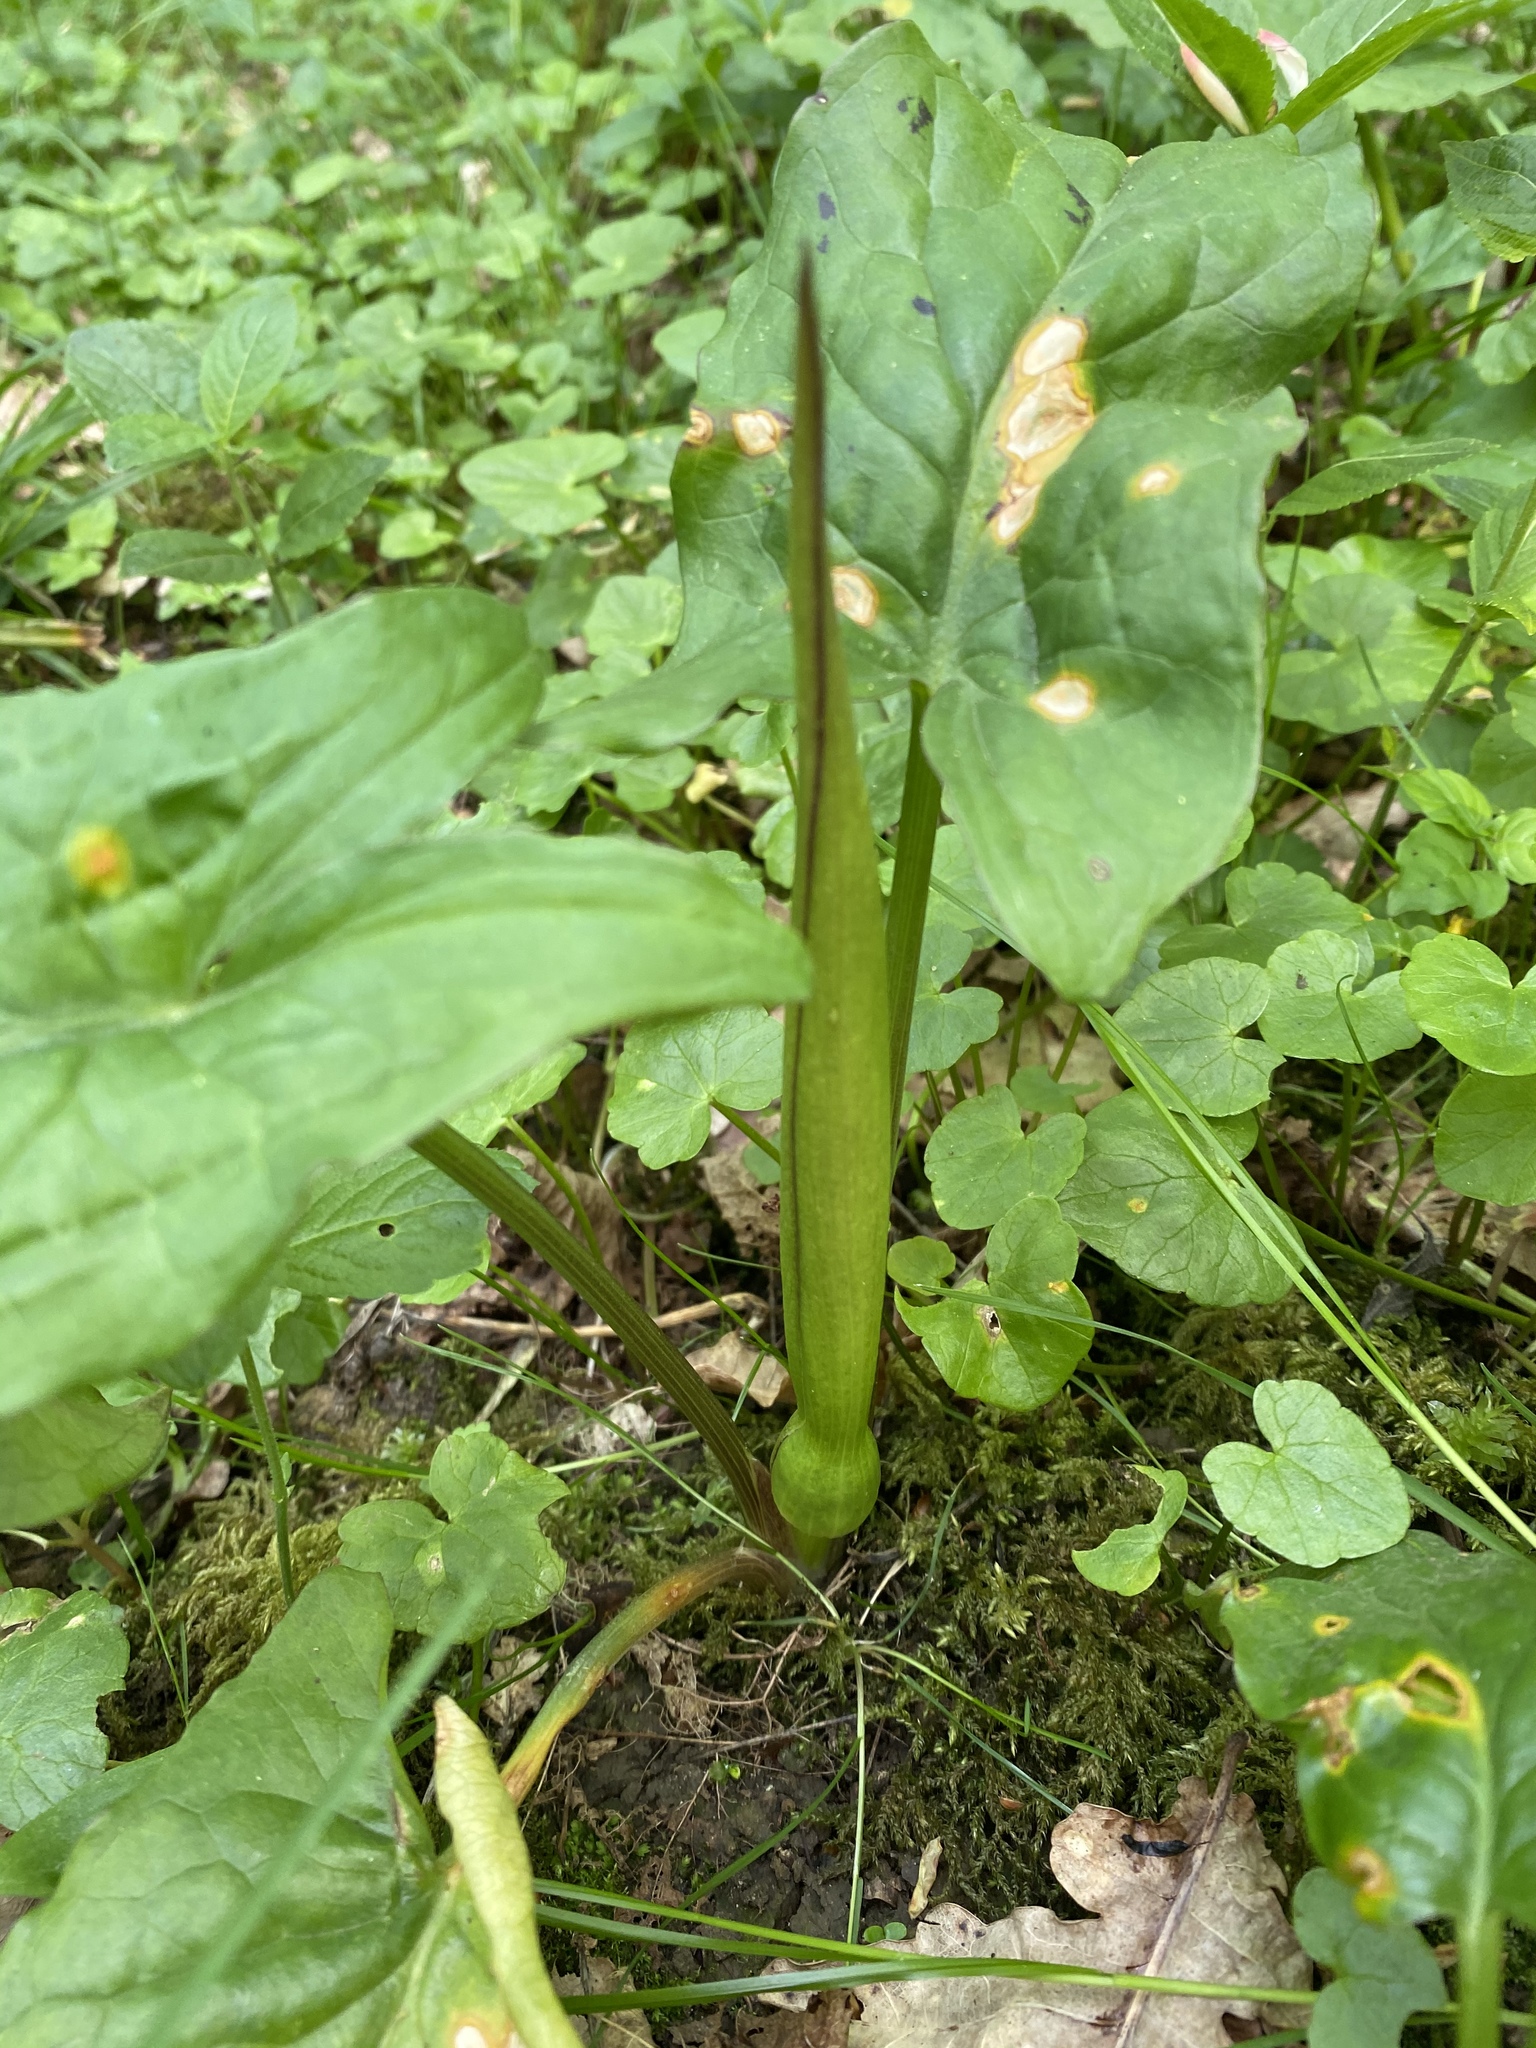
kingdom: Plantae
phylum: Tracheophyta
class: Liliopsida
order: Alismatales
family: Araceae
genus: Arum
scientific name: Arum maculatum
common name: Lords-and-ladies
